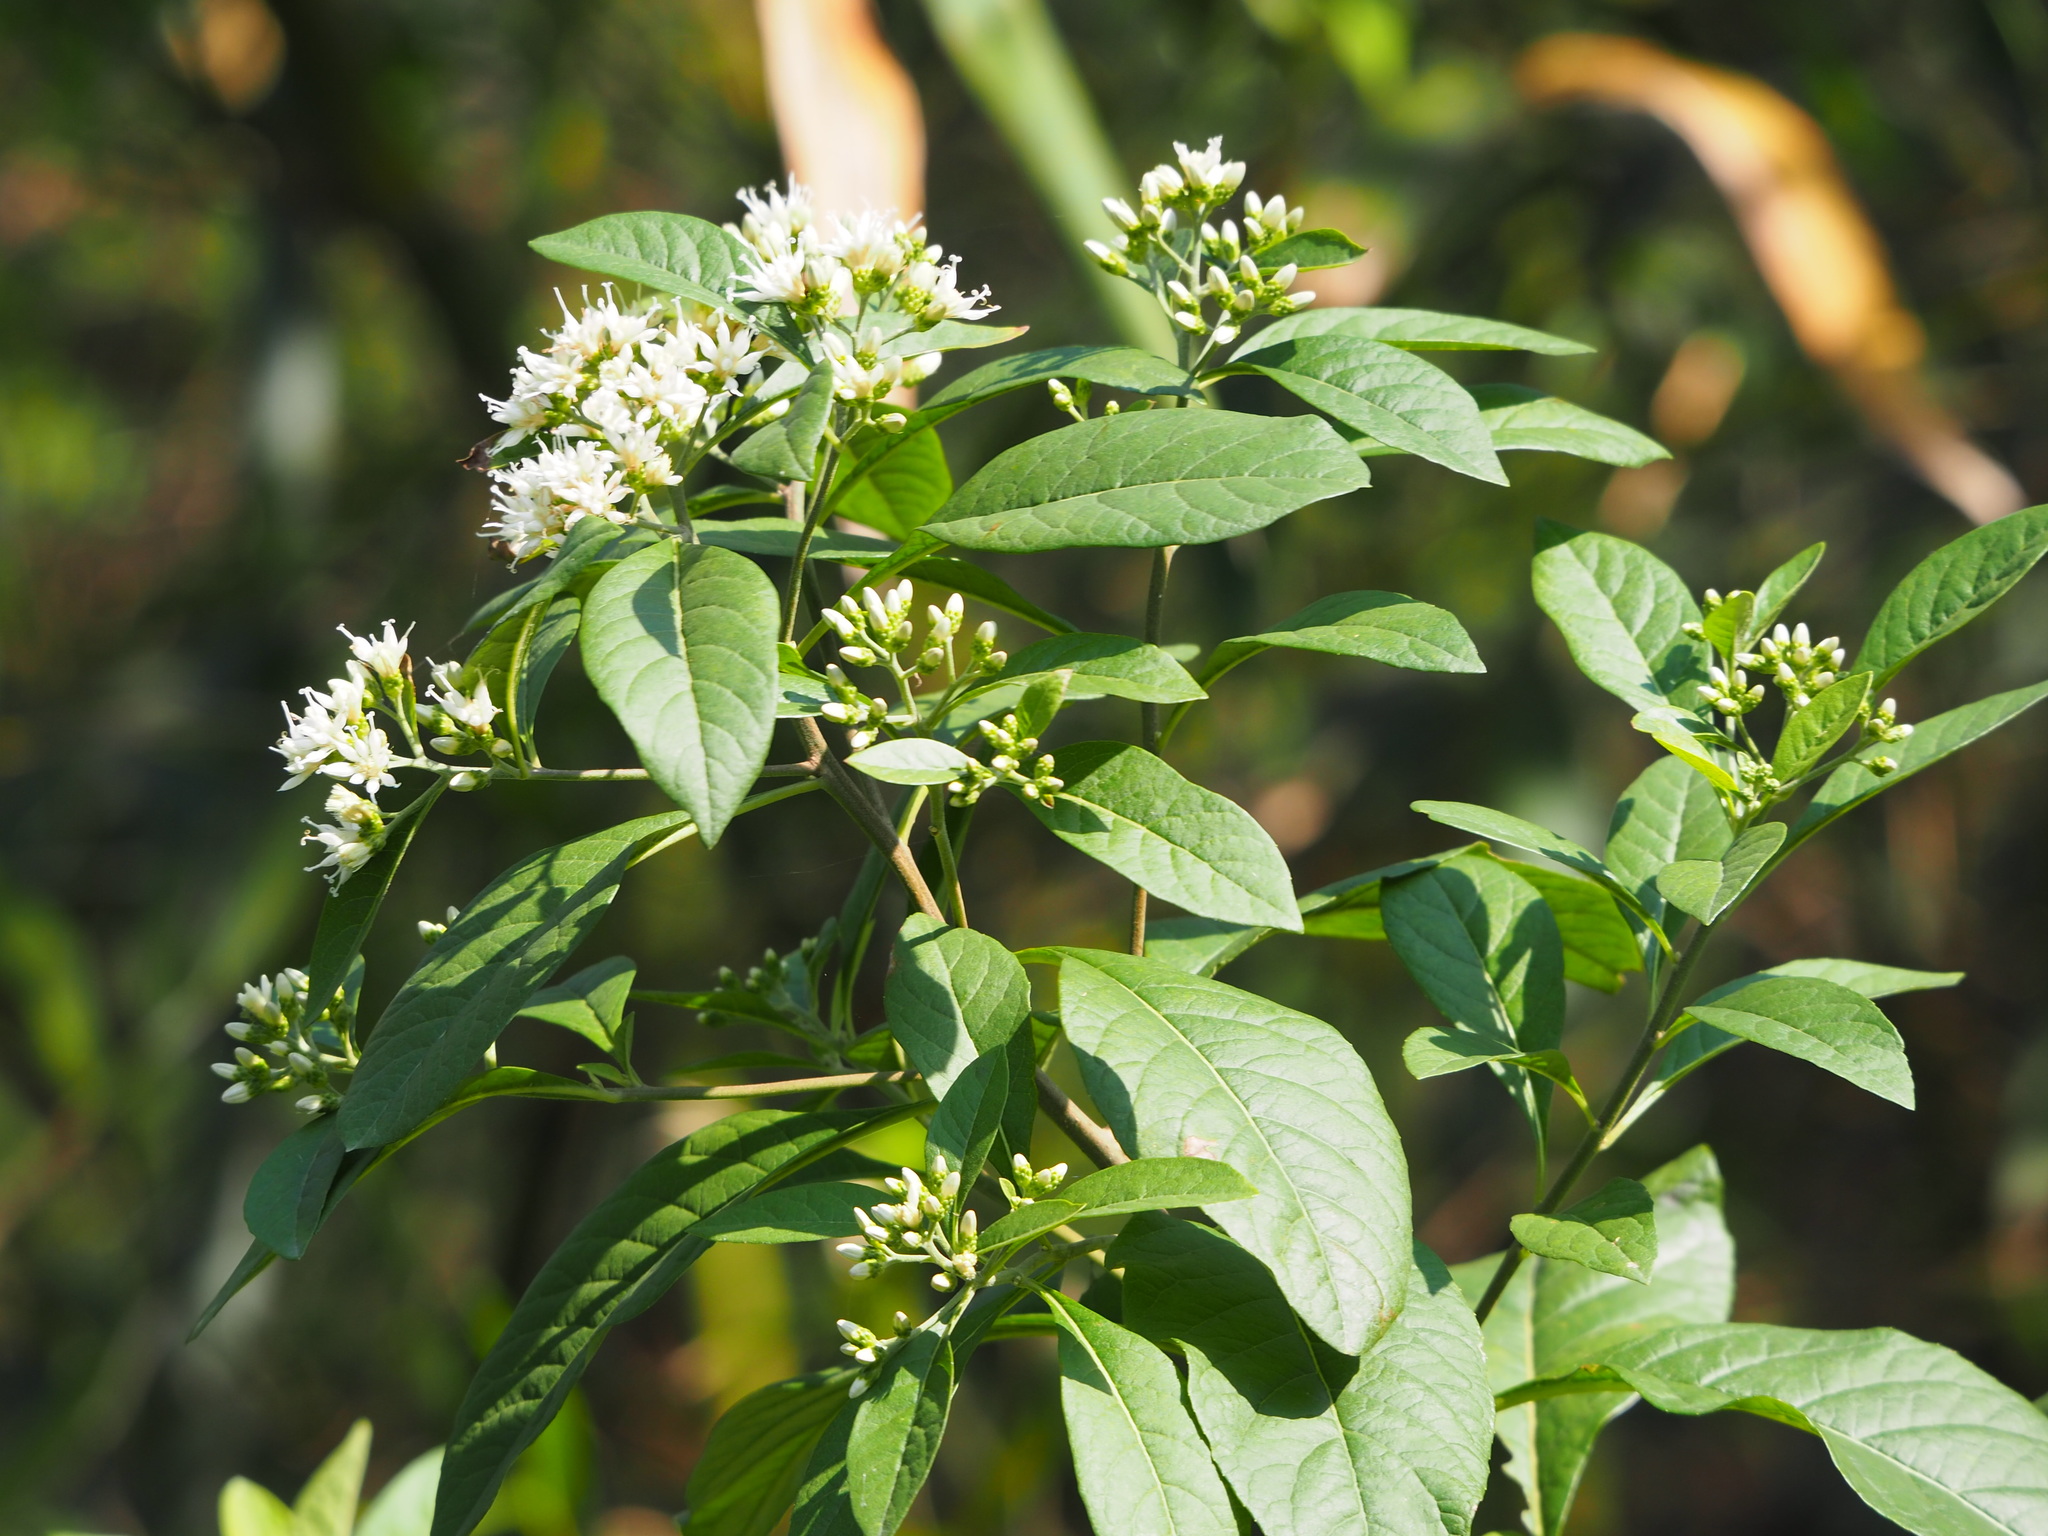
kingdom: Plantae
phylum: Tracheophyta
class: Magnoliopsida
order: Asterales
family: Asteraceae
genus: Gymnanthemum
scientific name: Gymnanthemum amygdalinum
